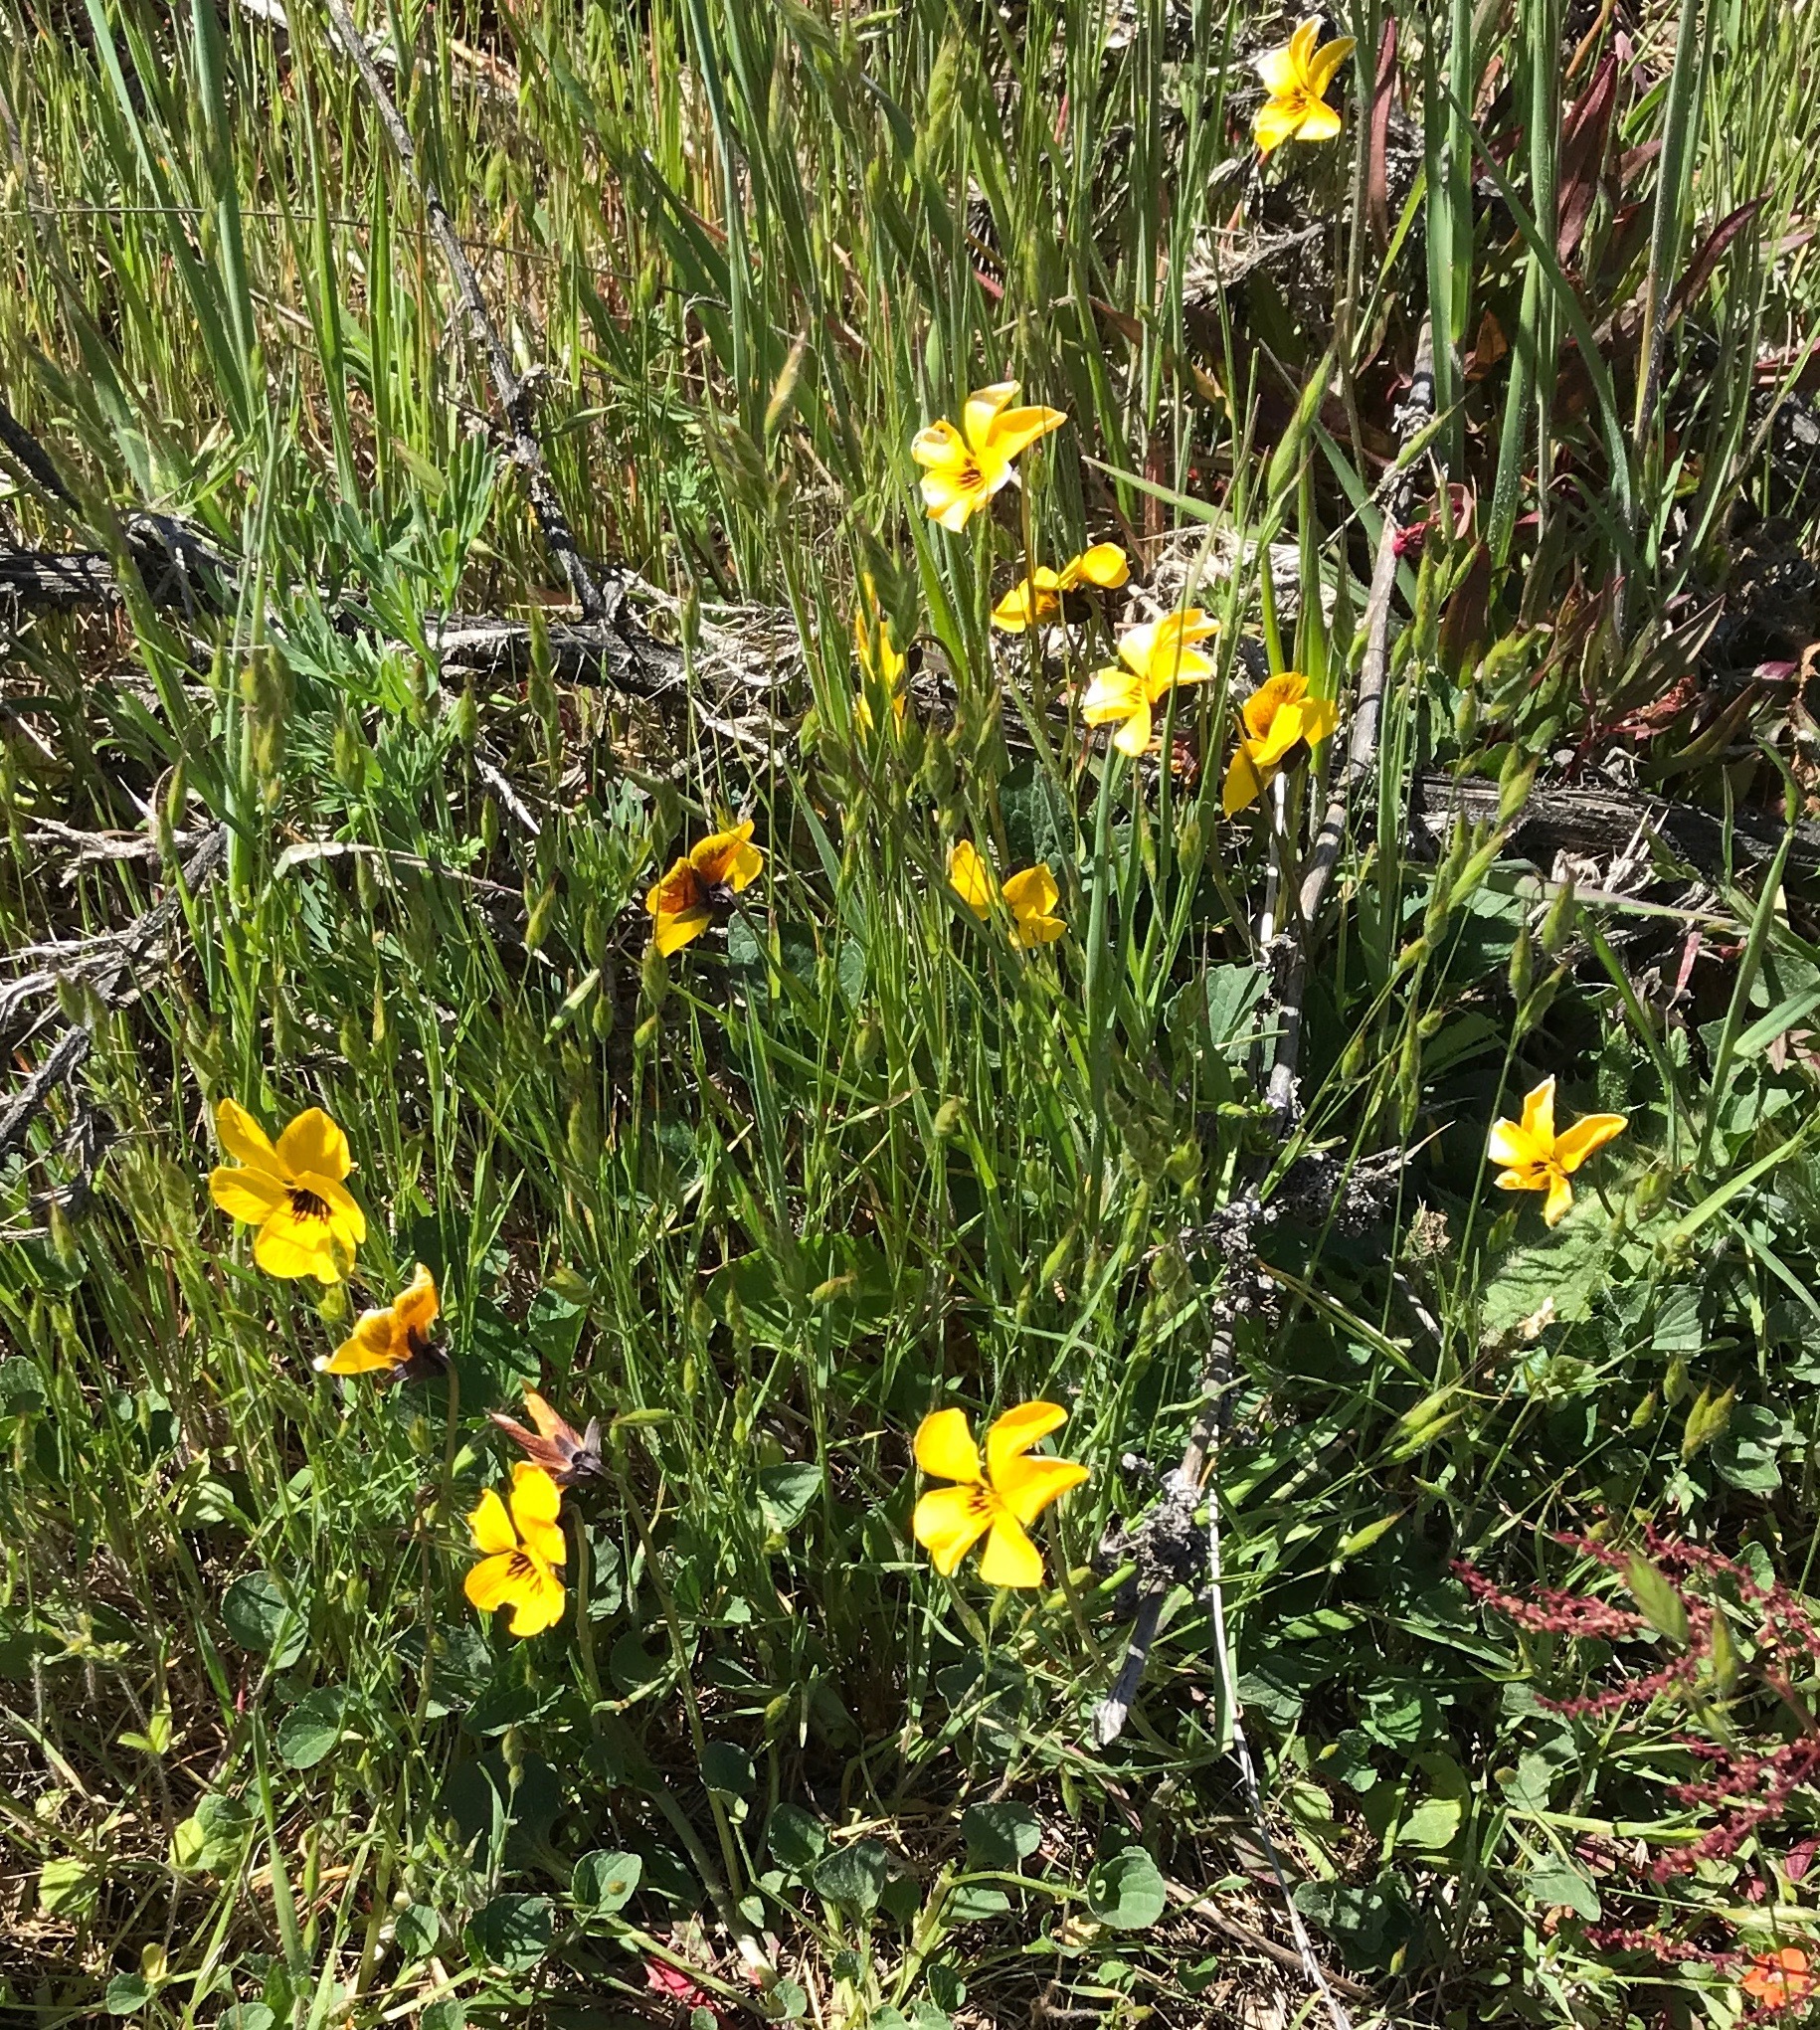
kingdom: Plantae
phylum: Tracheophyta
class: Magnoliopsida
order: Malpighiales
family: Violaceae
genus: Viola
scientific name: Viola pedunculata
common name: California golden violet
